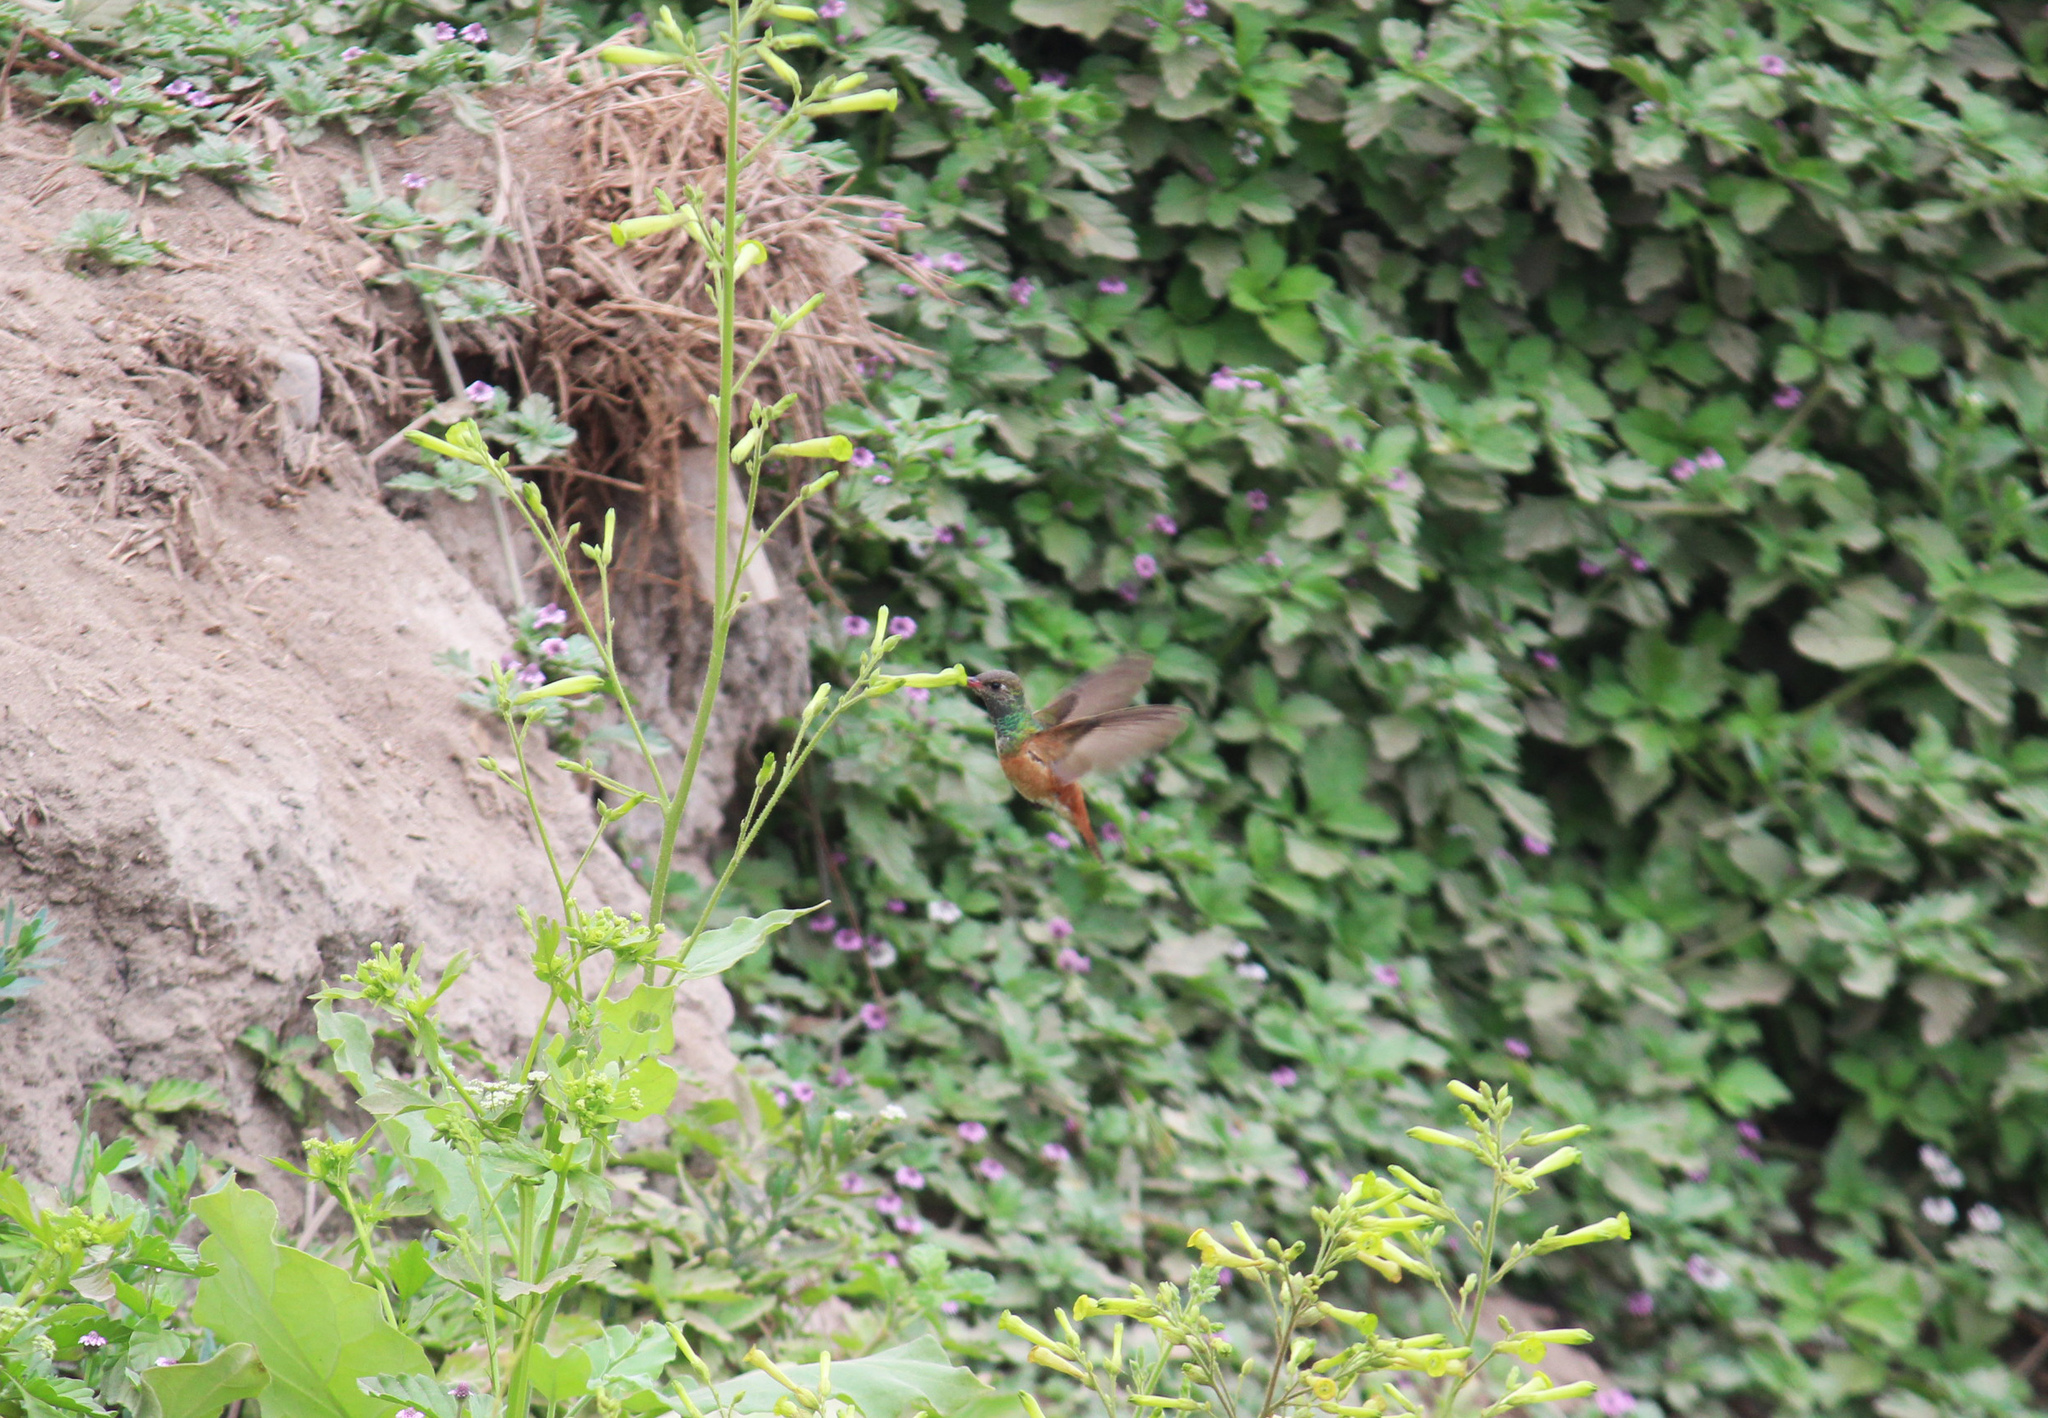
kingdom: Animalia
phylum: Chordata
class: Aves
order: Apodiformes
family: Trochilidae
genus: Amazilis
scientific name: Amazilis amazilia
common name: Amazilia hummingbird
